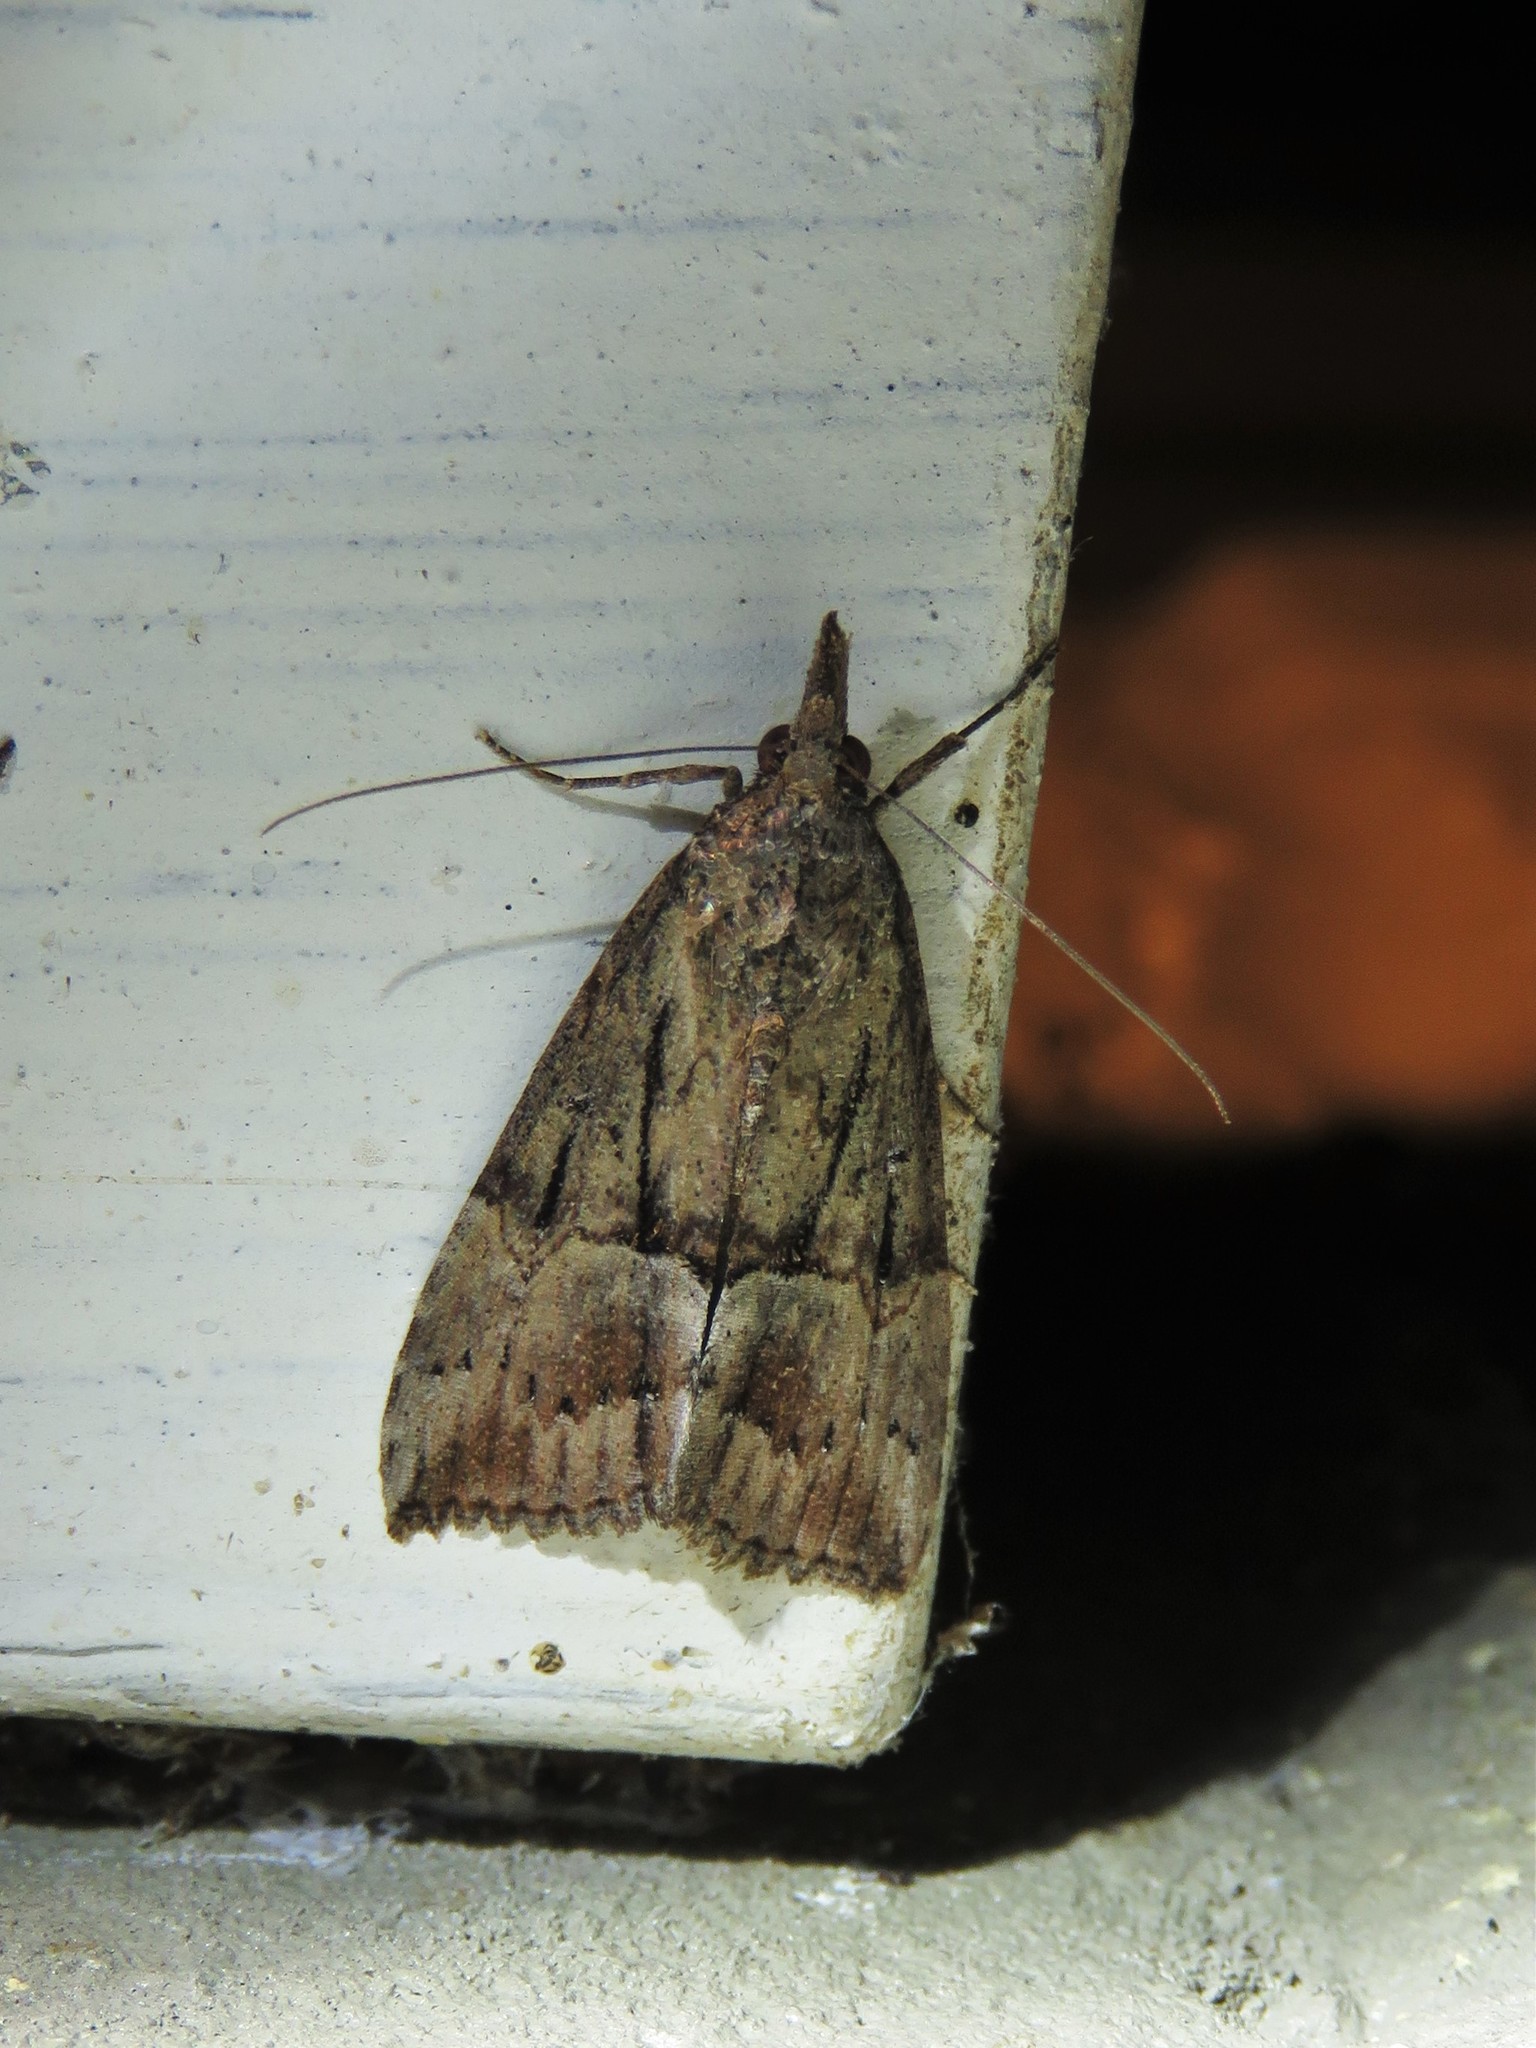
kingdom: Animalia
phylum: Arthropoda
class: Insecta
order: Lepidoptera
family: Erebidae
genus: Hypena
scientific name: Hypena scabra
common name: Green cloverworm
